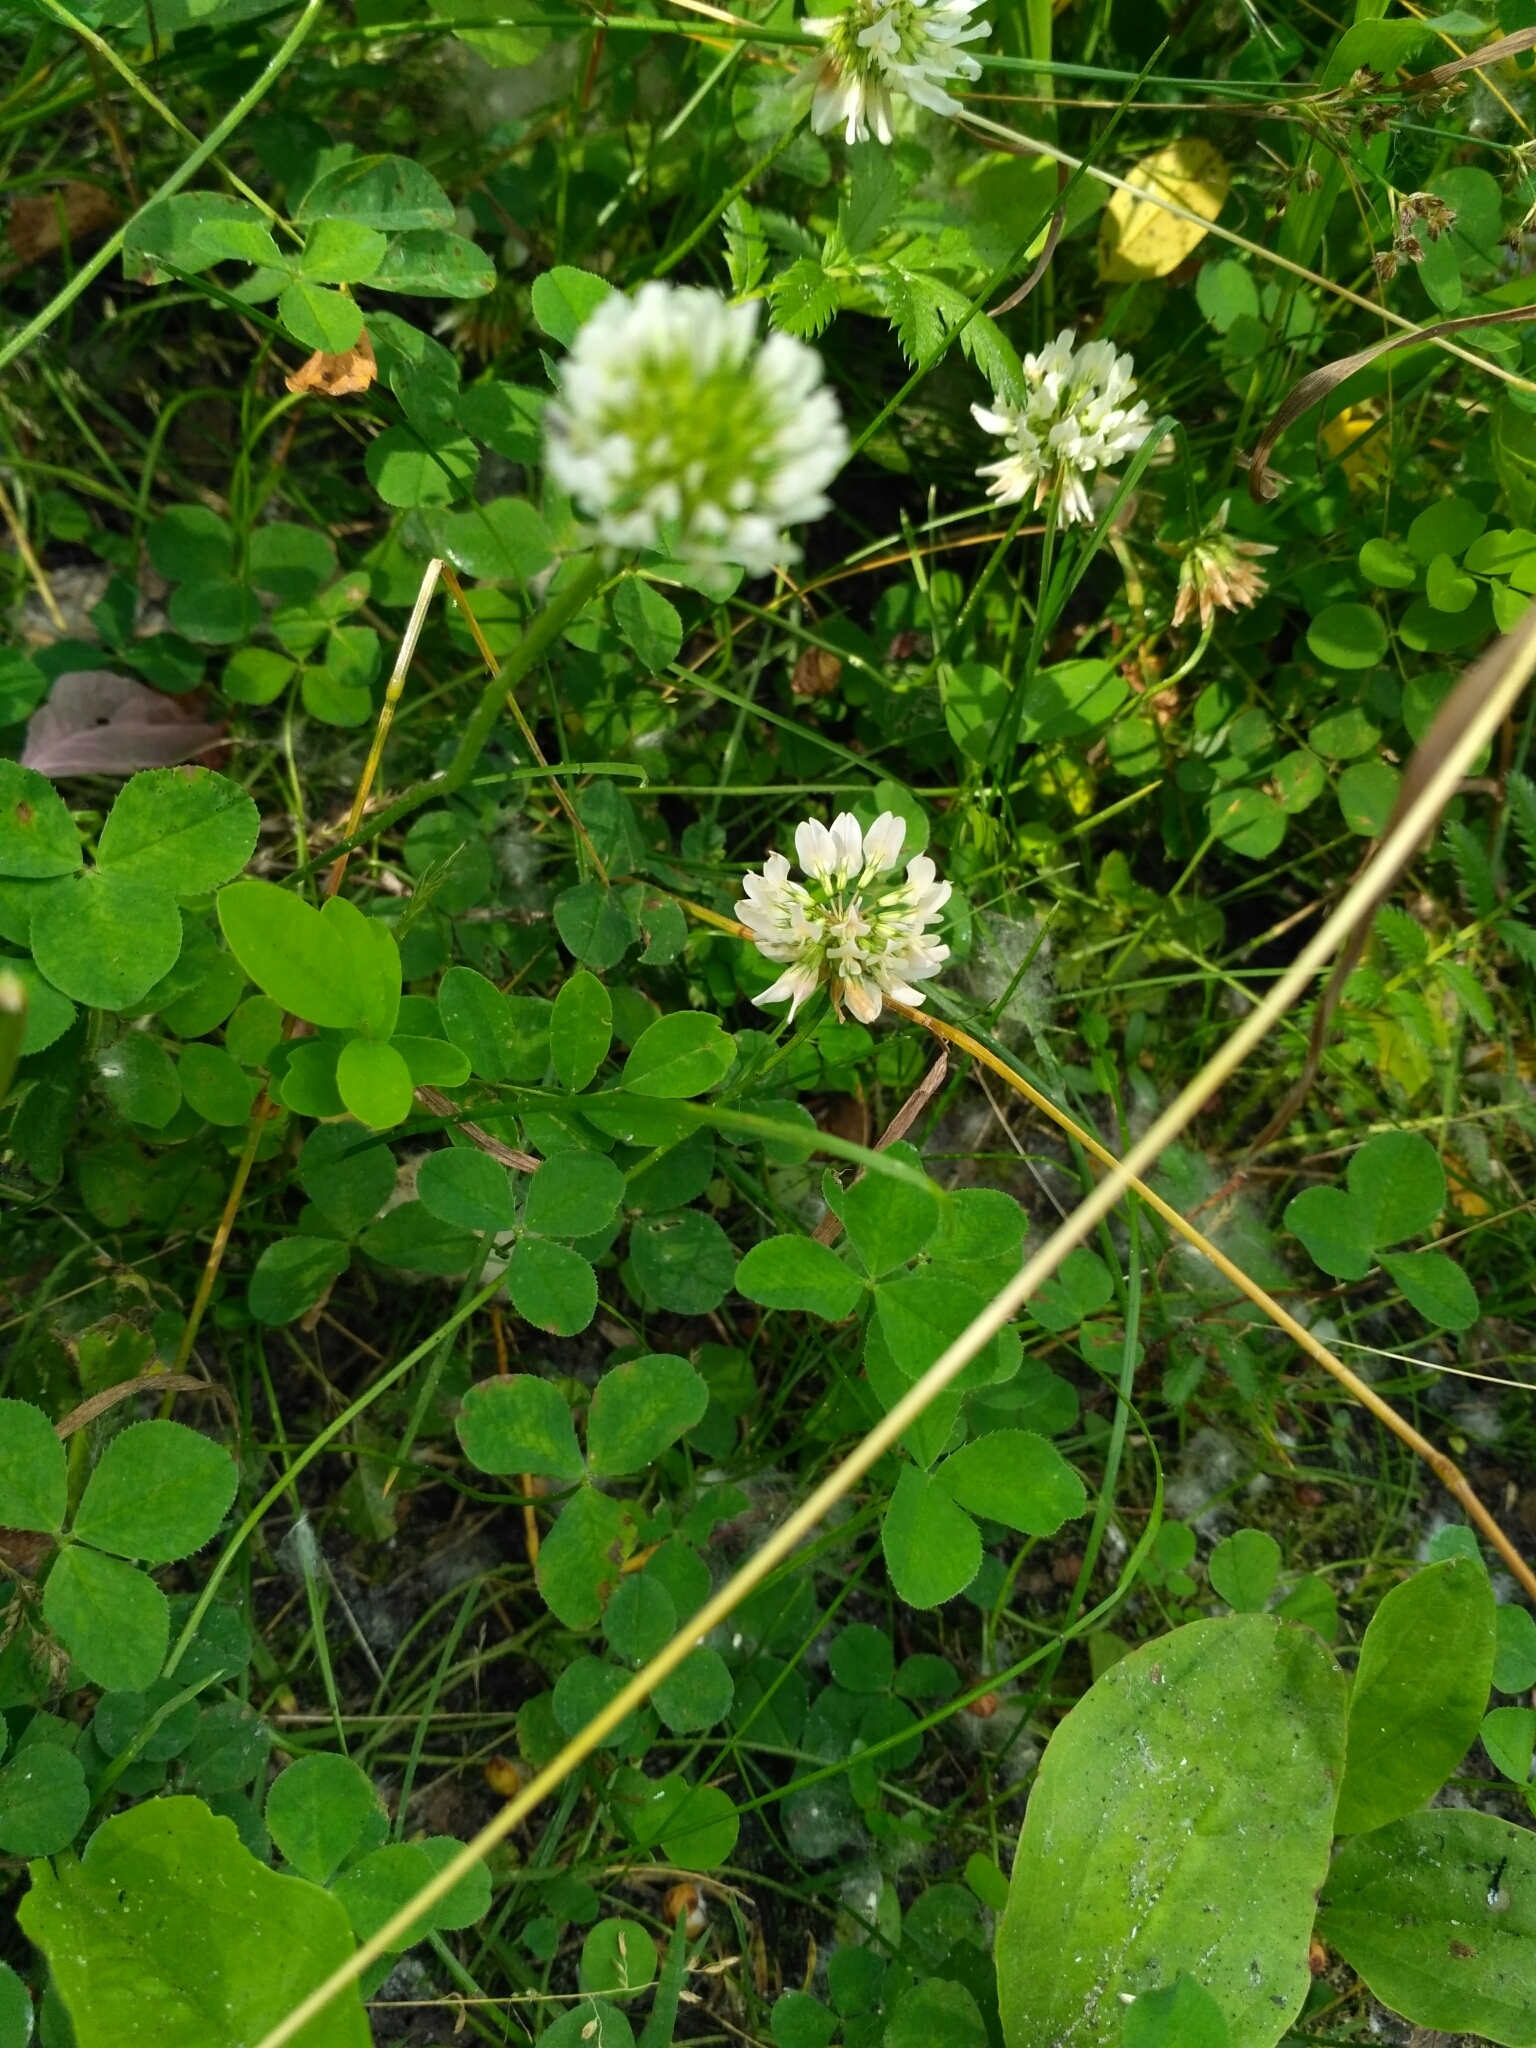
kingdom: Plantae
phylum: Tracheophyta
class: Magnoliopsida
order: Fabales
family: Fabaceae
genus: Trifolium
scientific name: Trifolium repens
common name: White clover
